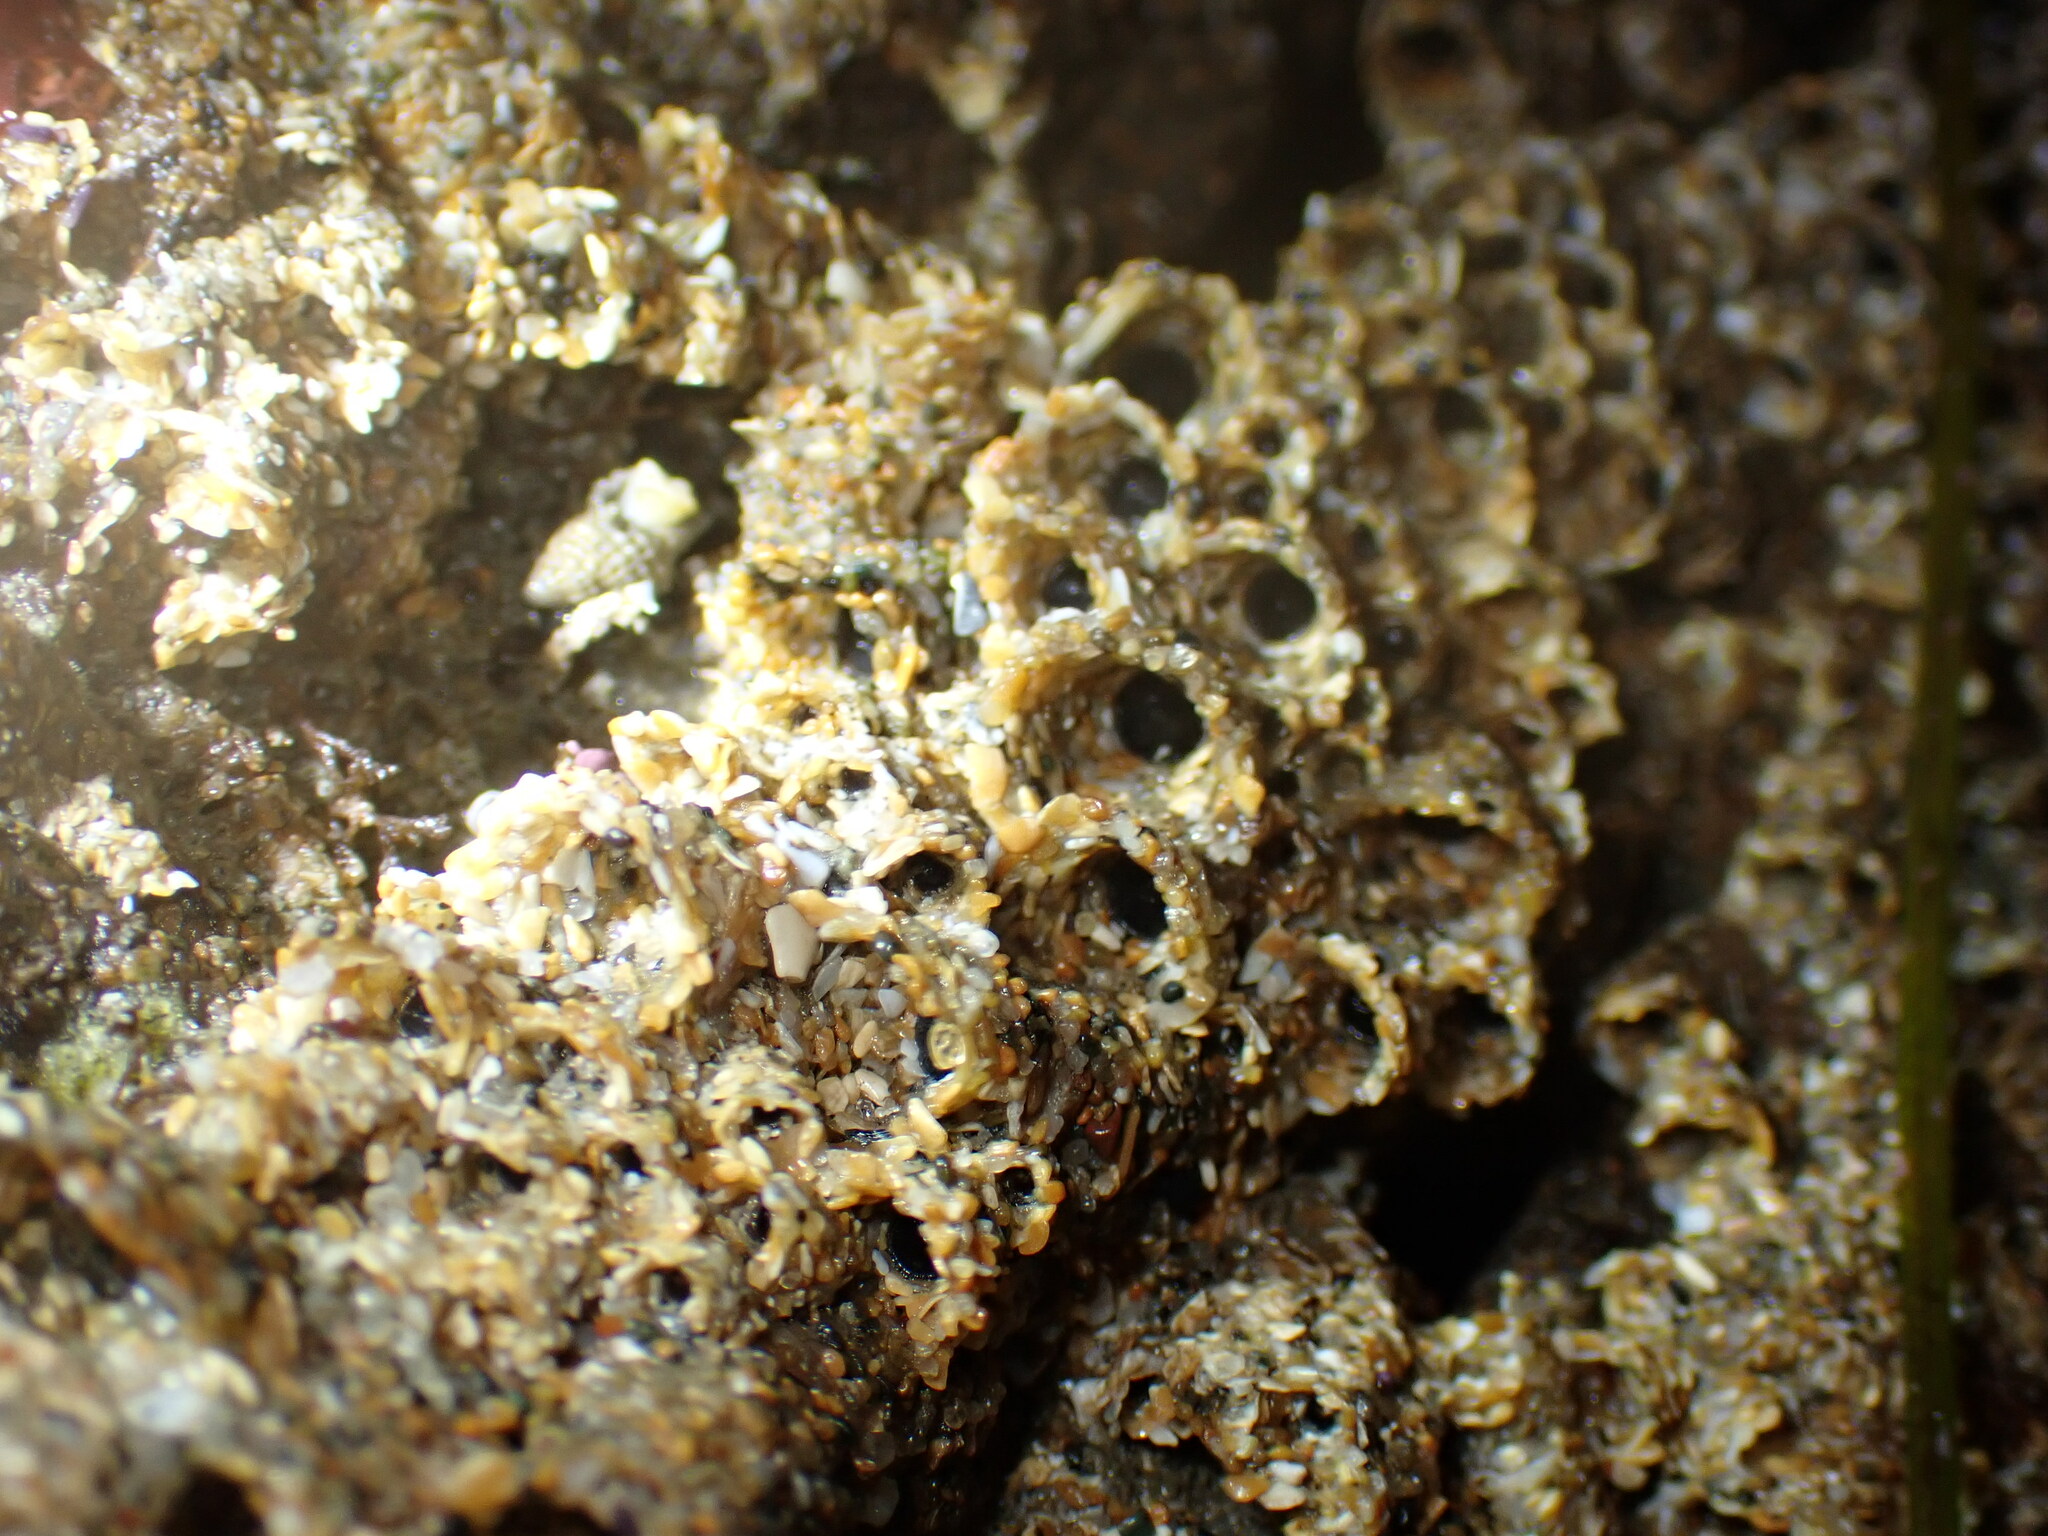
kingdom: Animalia
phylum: Annelida
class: Polychaeta
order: Sabellida
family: Sabellariidae
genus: Phragmatopoma
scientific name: Phragmatopoma californica
